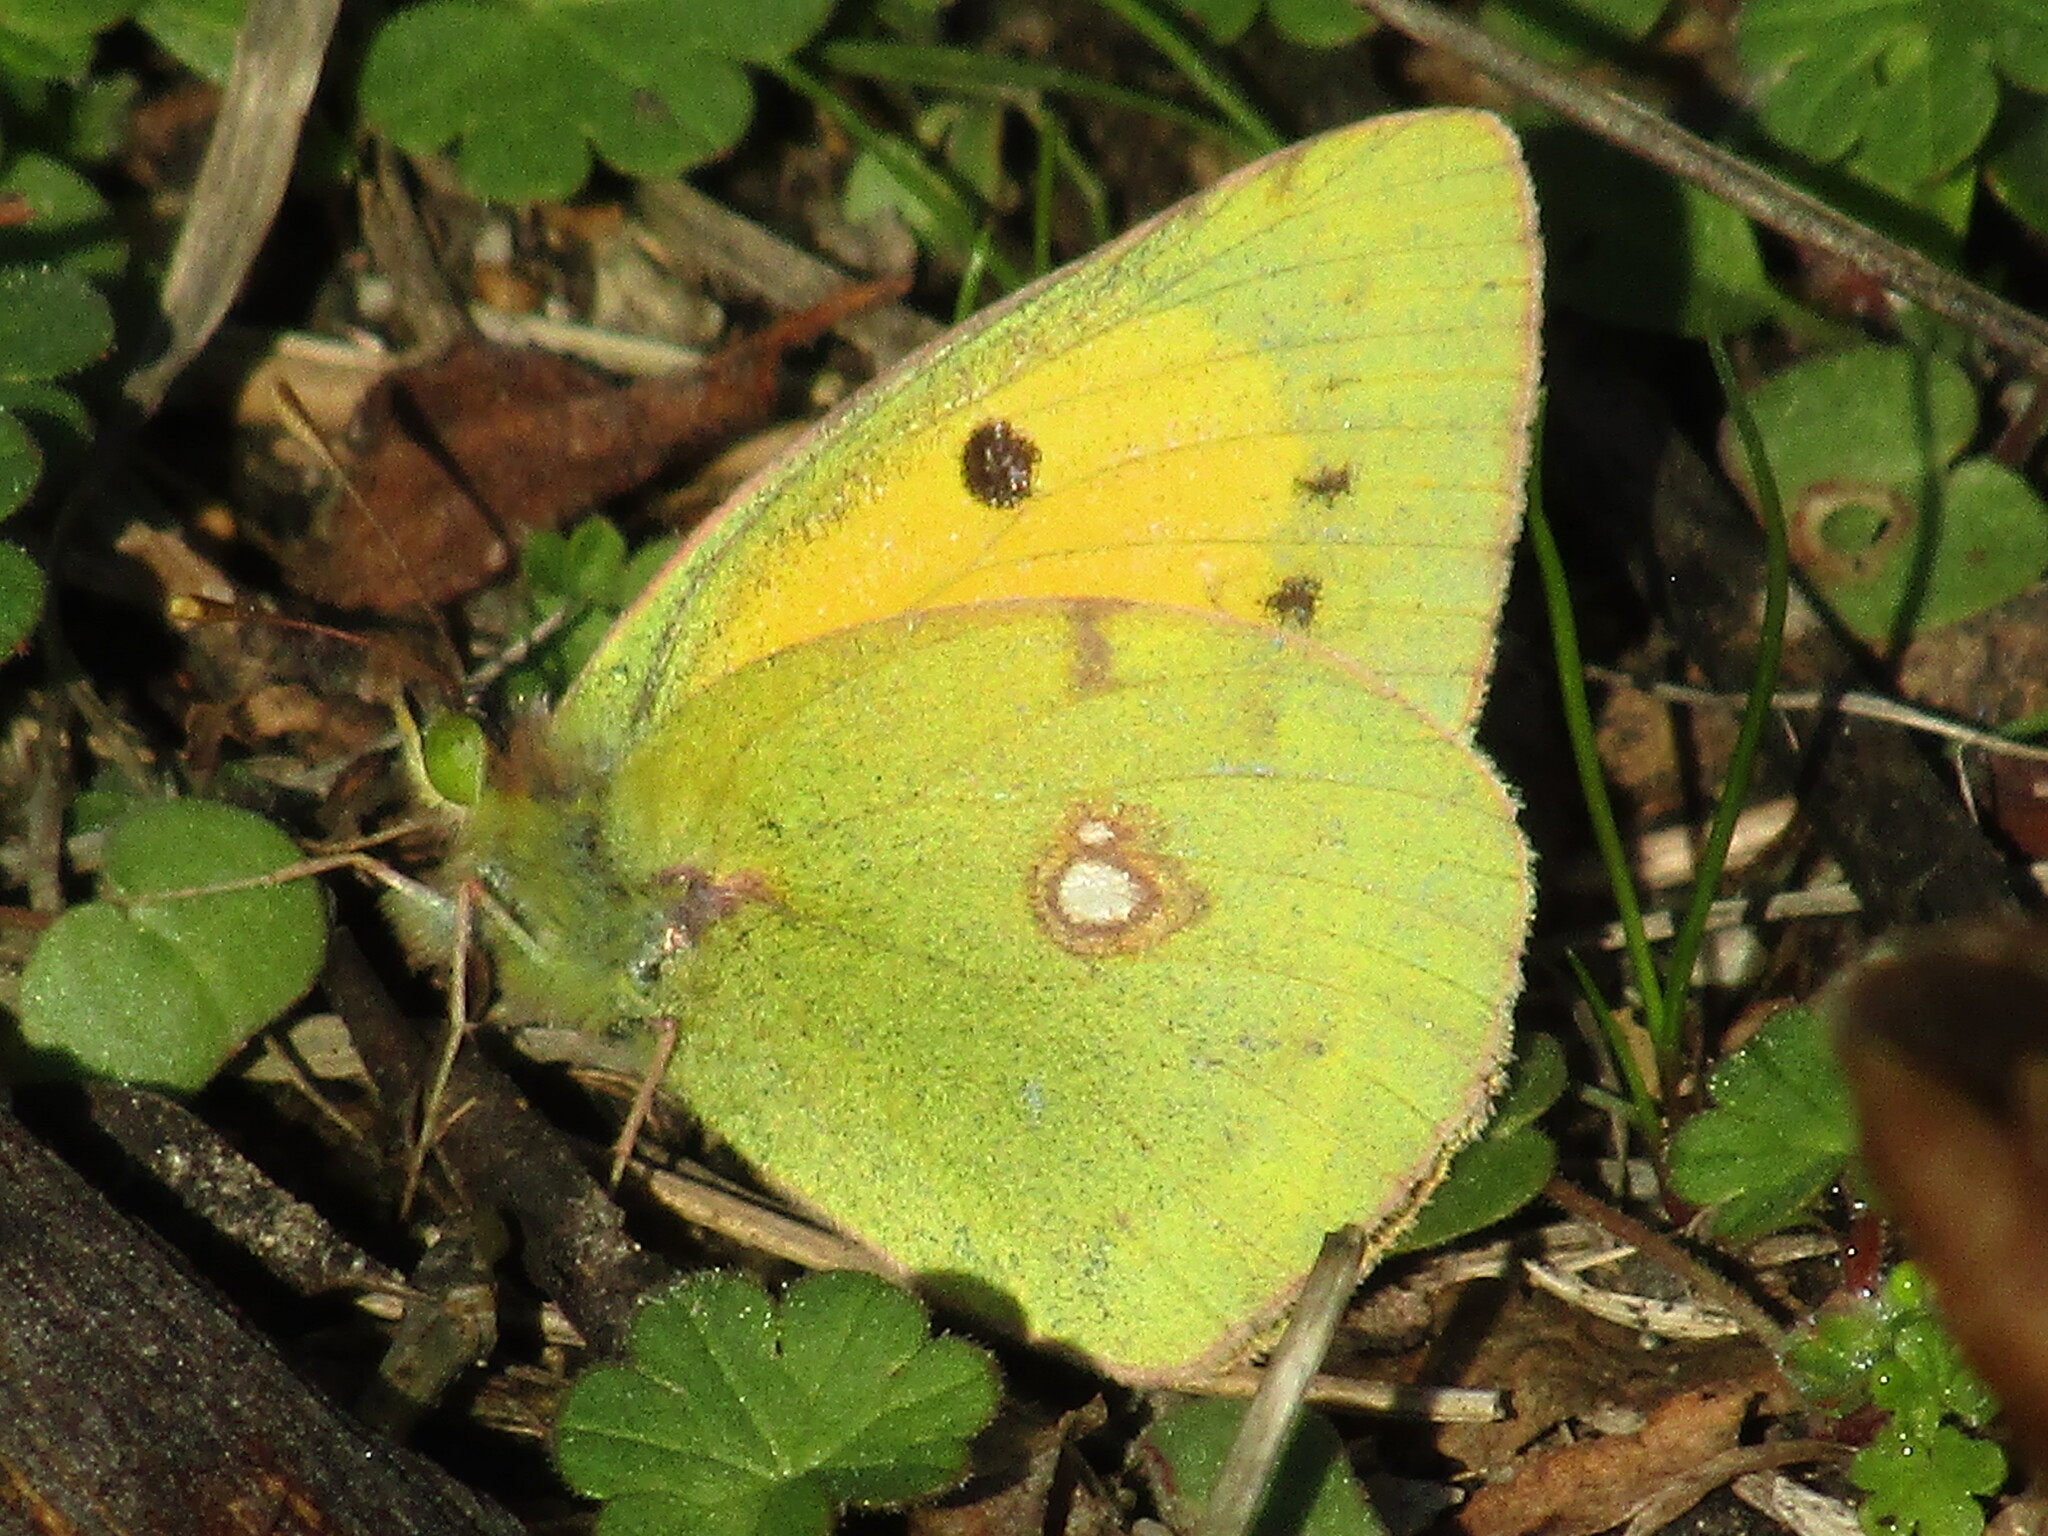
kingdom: Animalia
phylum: Arthropoda
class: Insecta
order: Lepidoptera
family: Pieridae
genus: Colias
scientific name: Colias croceus
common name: Clouded yellow
